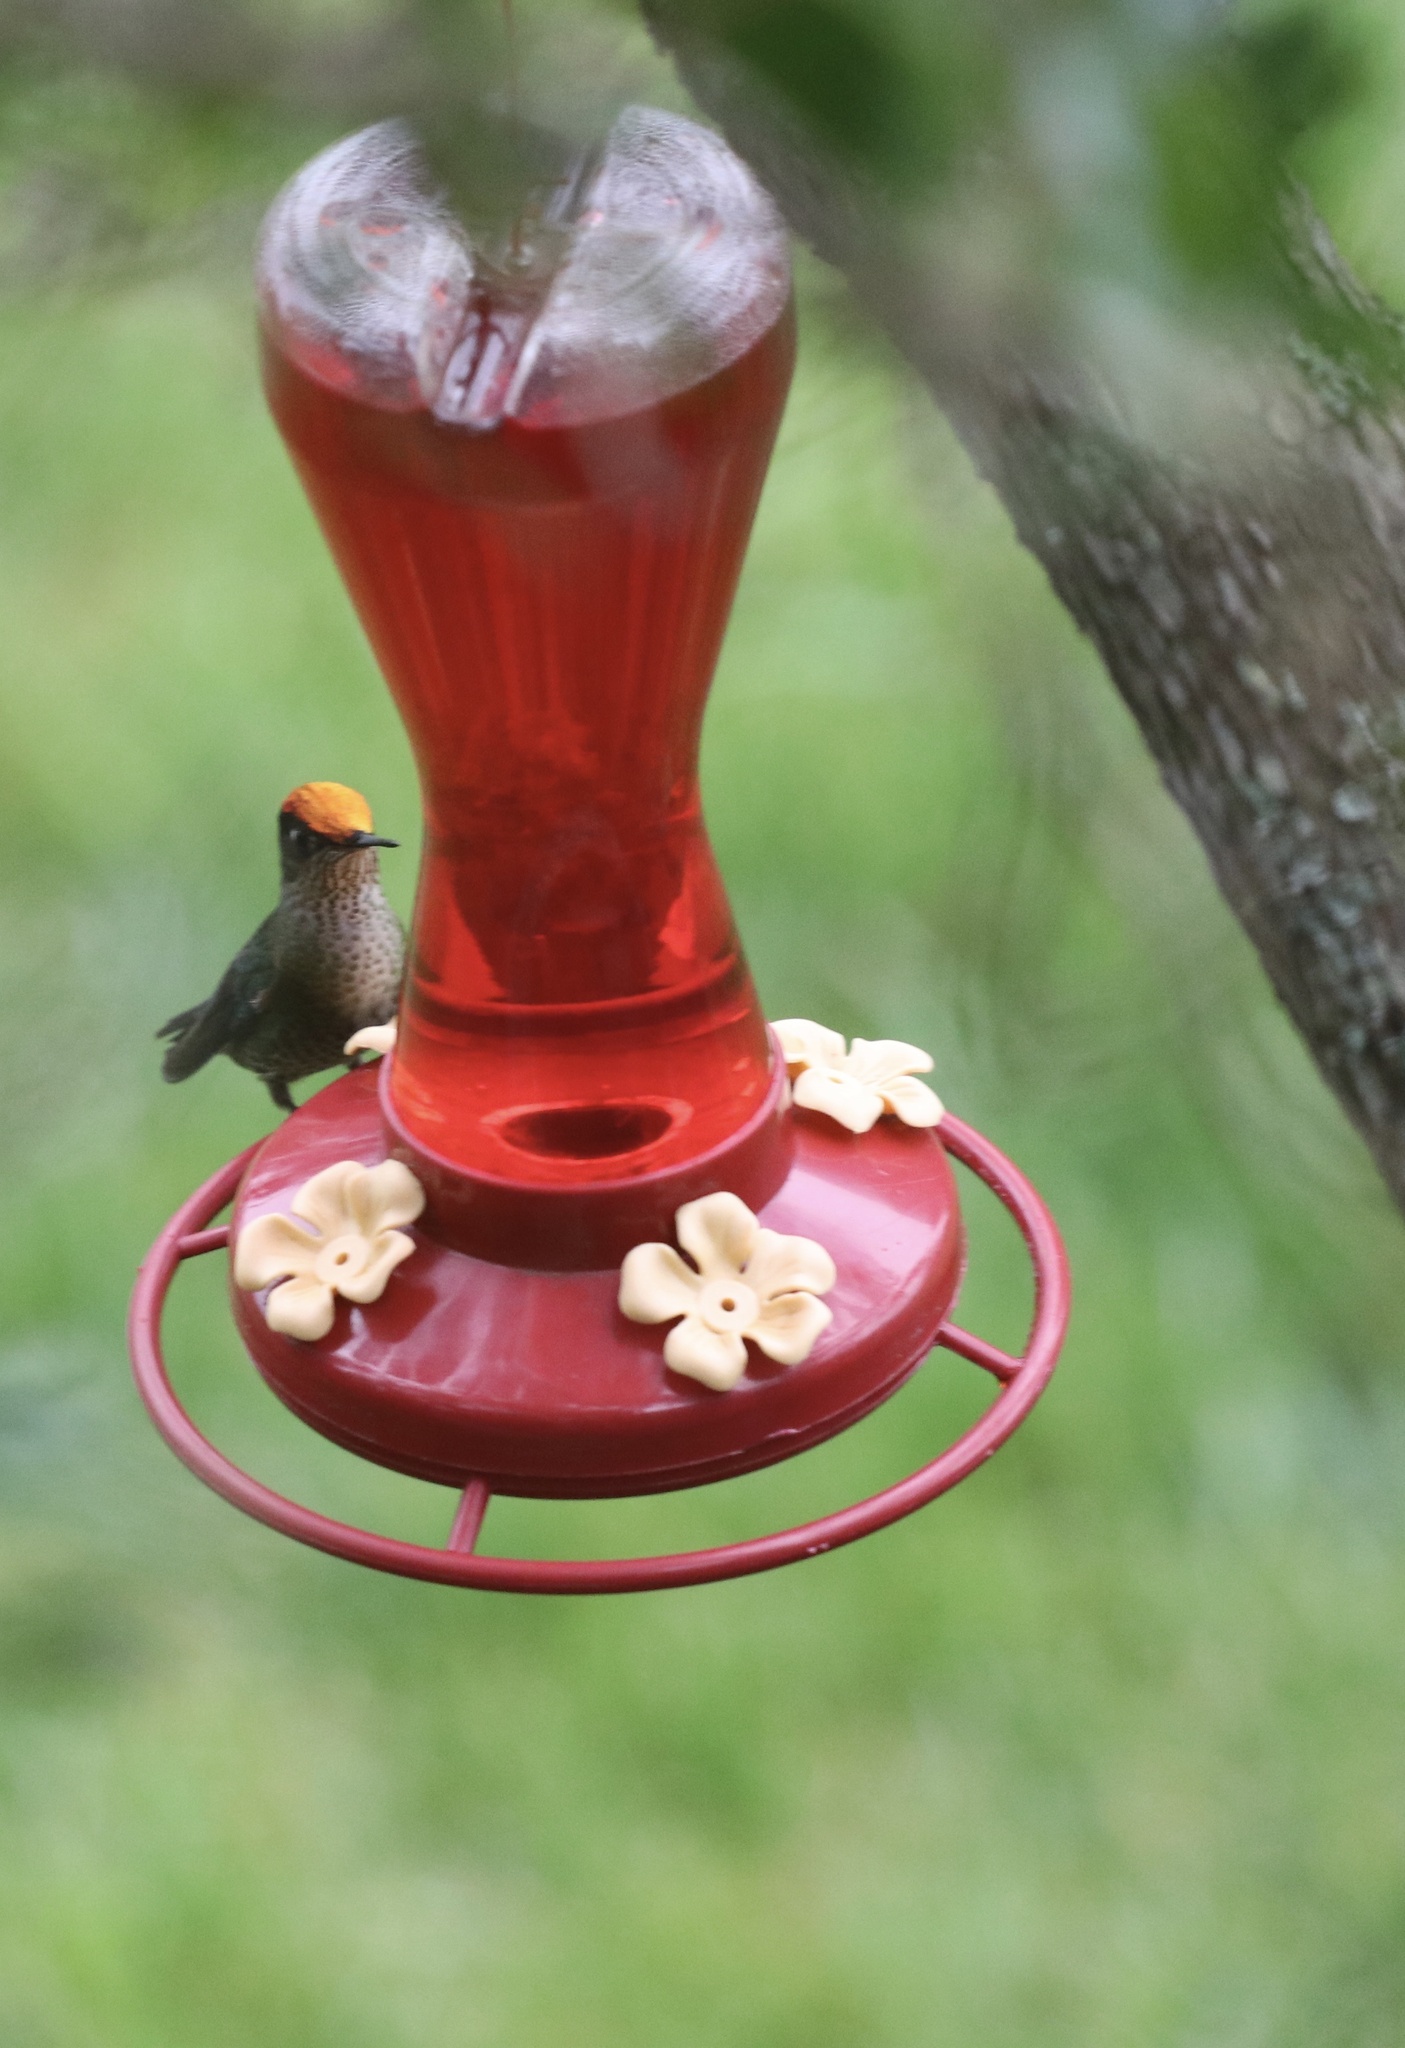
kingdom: Animalia
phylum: Chordata
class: Aves
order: Apodiformes
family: Trochilidae
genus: Sephanoides
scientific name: Sephanoides sephaniodes
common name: Green-backed firecrown
